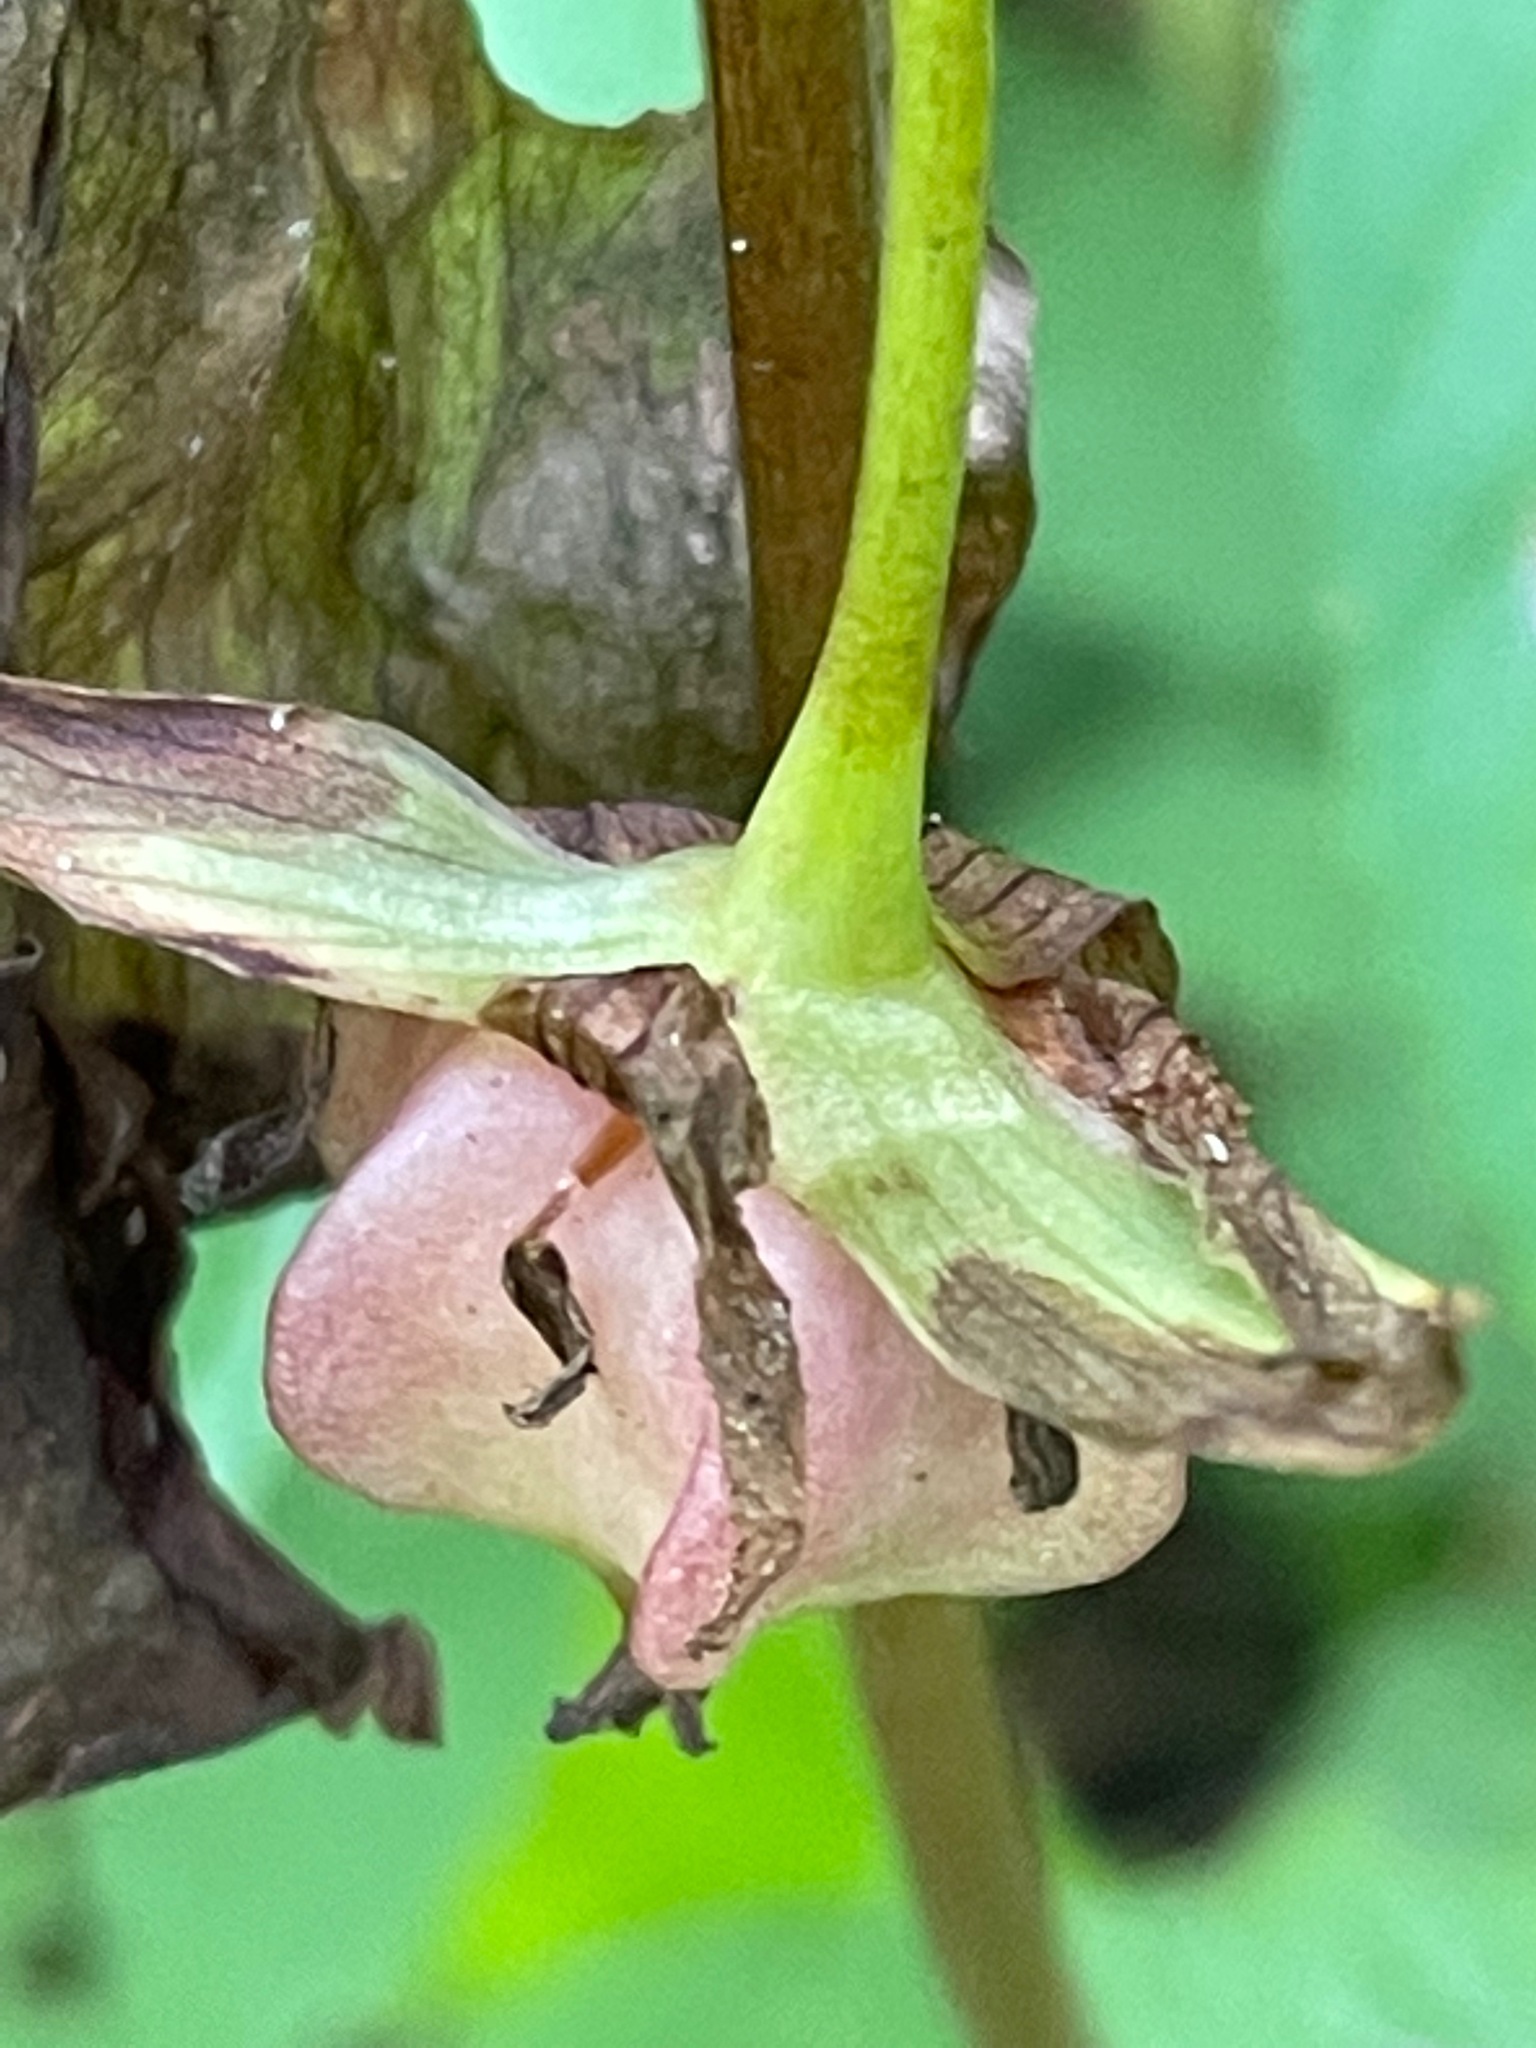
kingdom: Plantae
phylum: Tracheophyta
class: Liliopsida
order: Liliales
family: Melanthiaceae
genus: Trillium
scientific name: Trillium cernuum
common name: Nodding trillium
